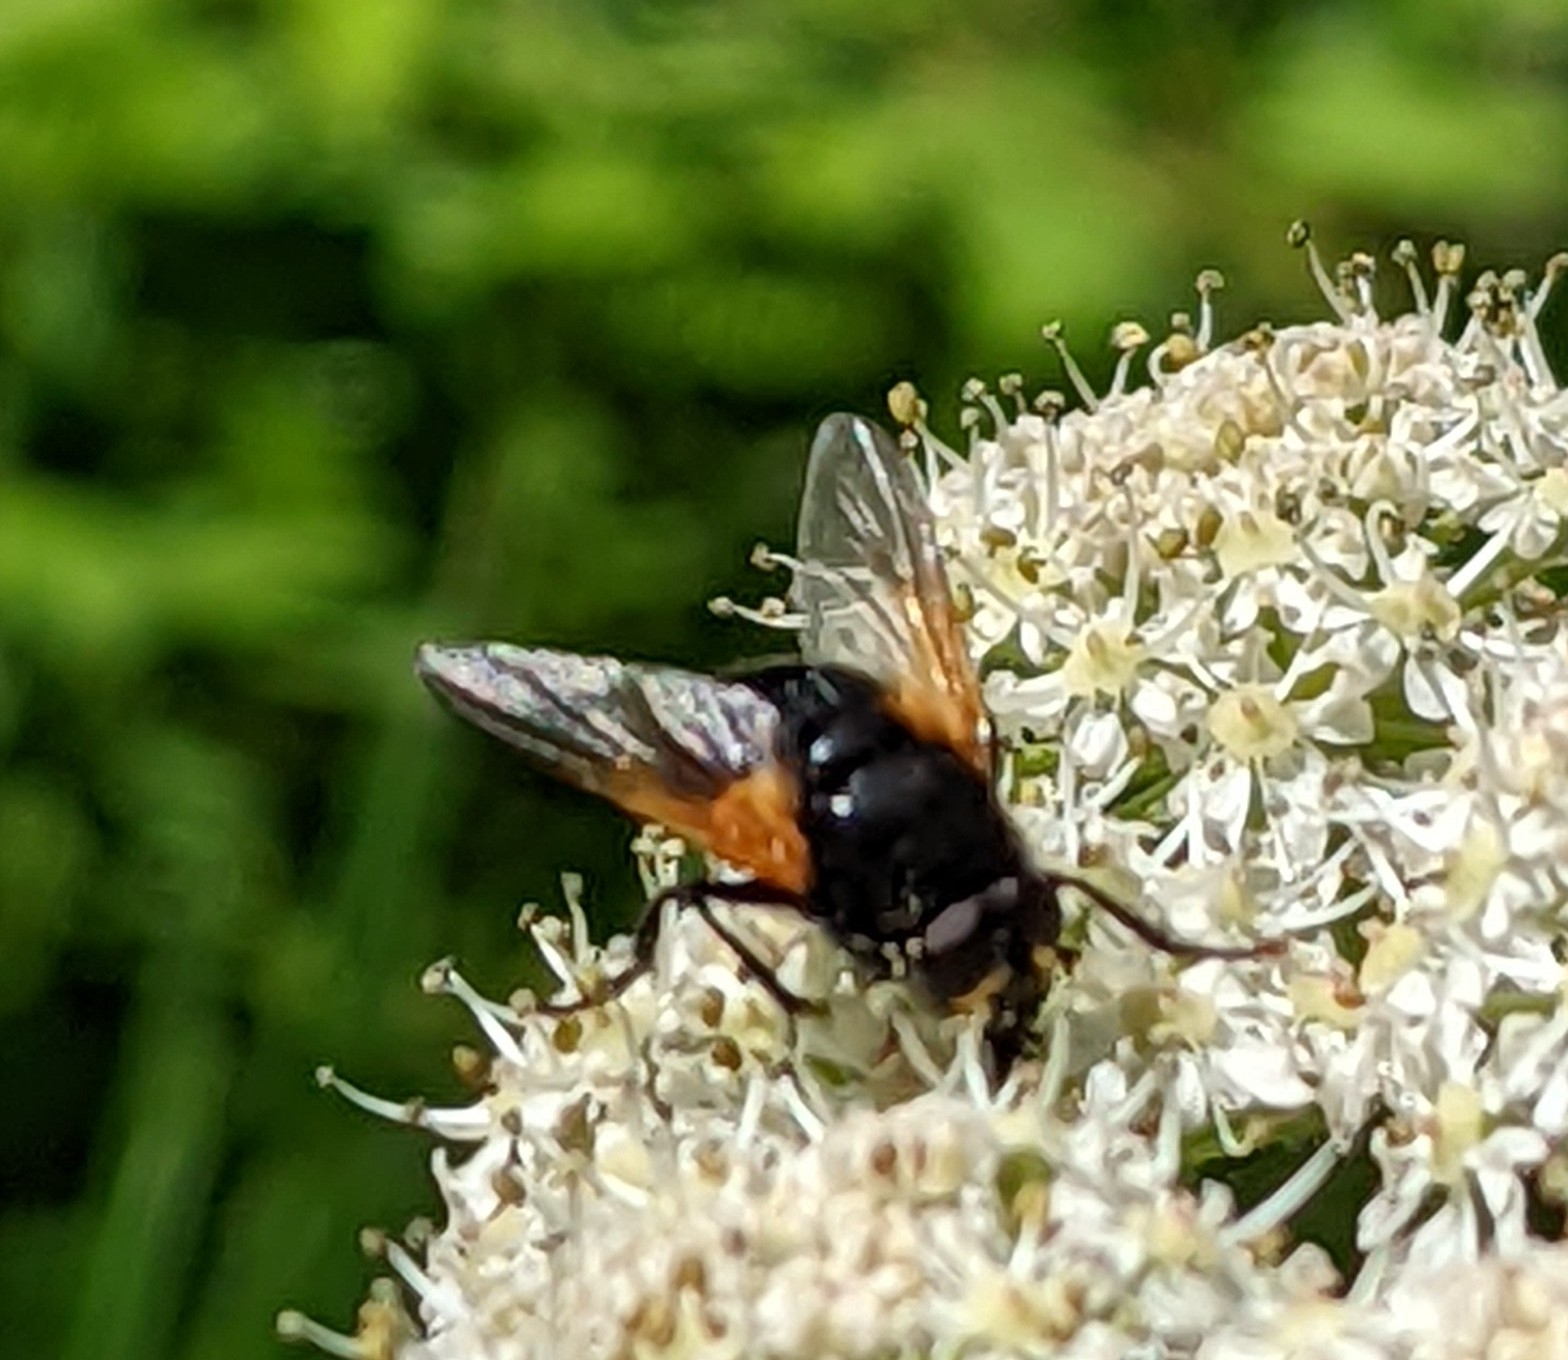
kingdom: Animalia
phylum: Arthropoda
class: Insecta
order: Diptera
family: Muscidae
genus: Mesembrina
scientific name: Mesembrina meridiana
